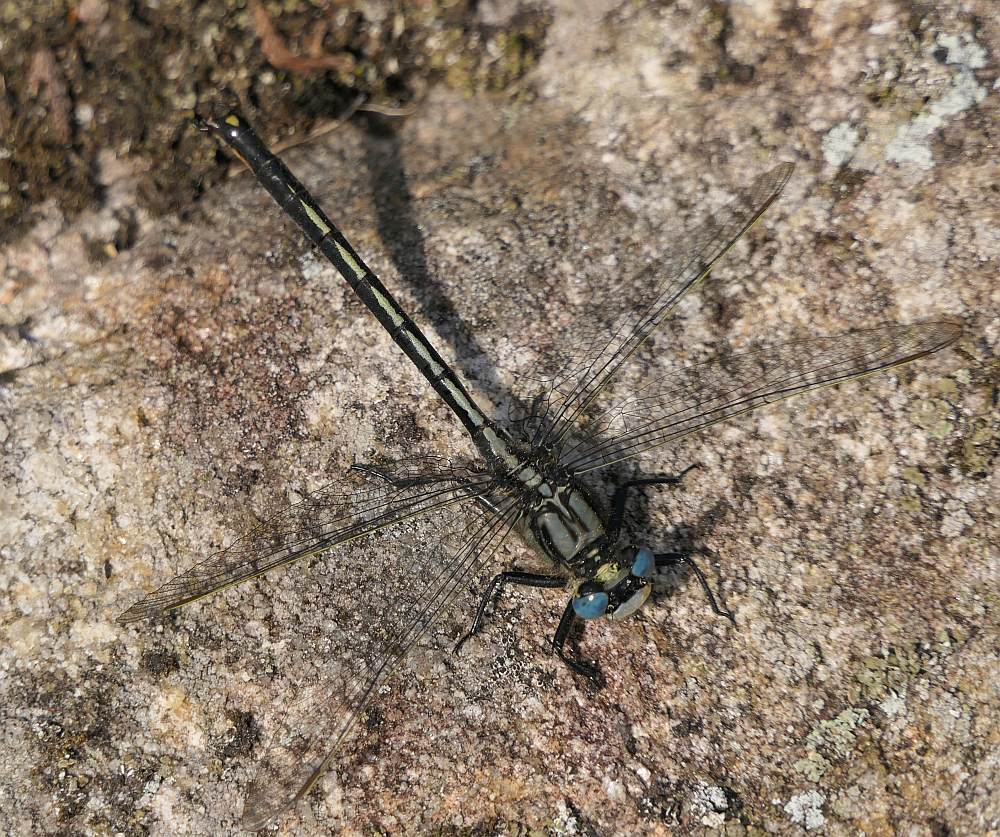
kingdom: Animalia
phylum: Arthropoda
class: Insecta
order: Odonata
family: Gomphidae
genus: Arigomphus
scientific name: Arigomphus cornutus
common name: Horned clubtail
